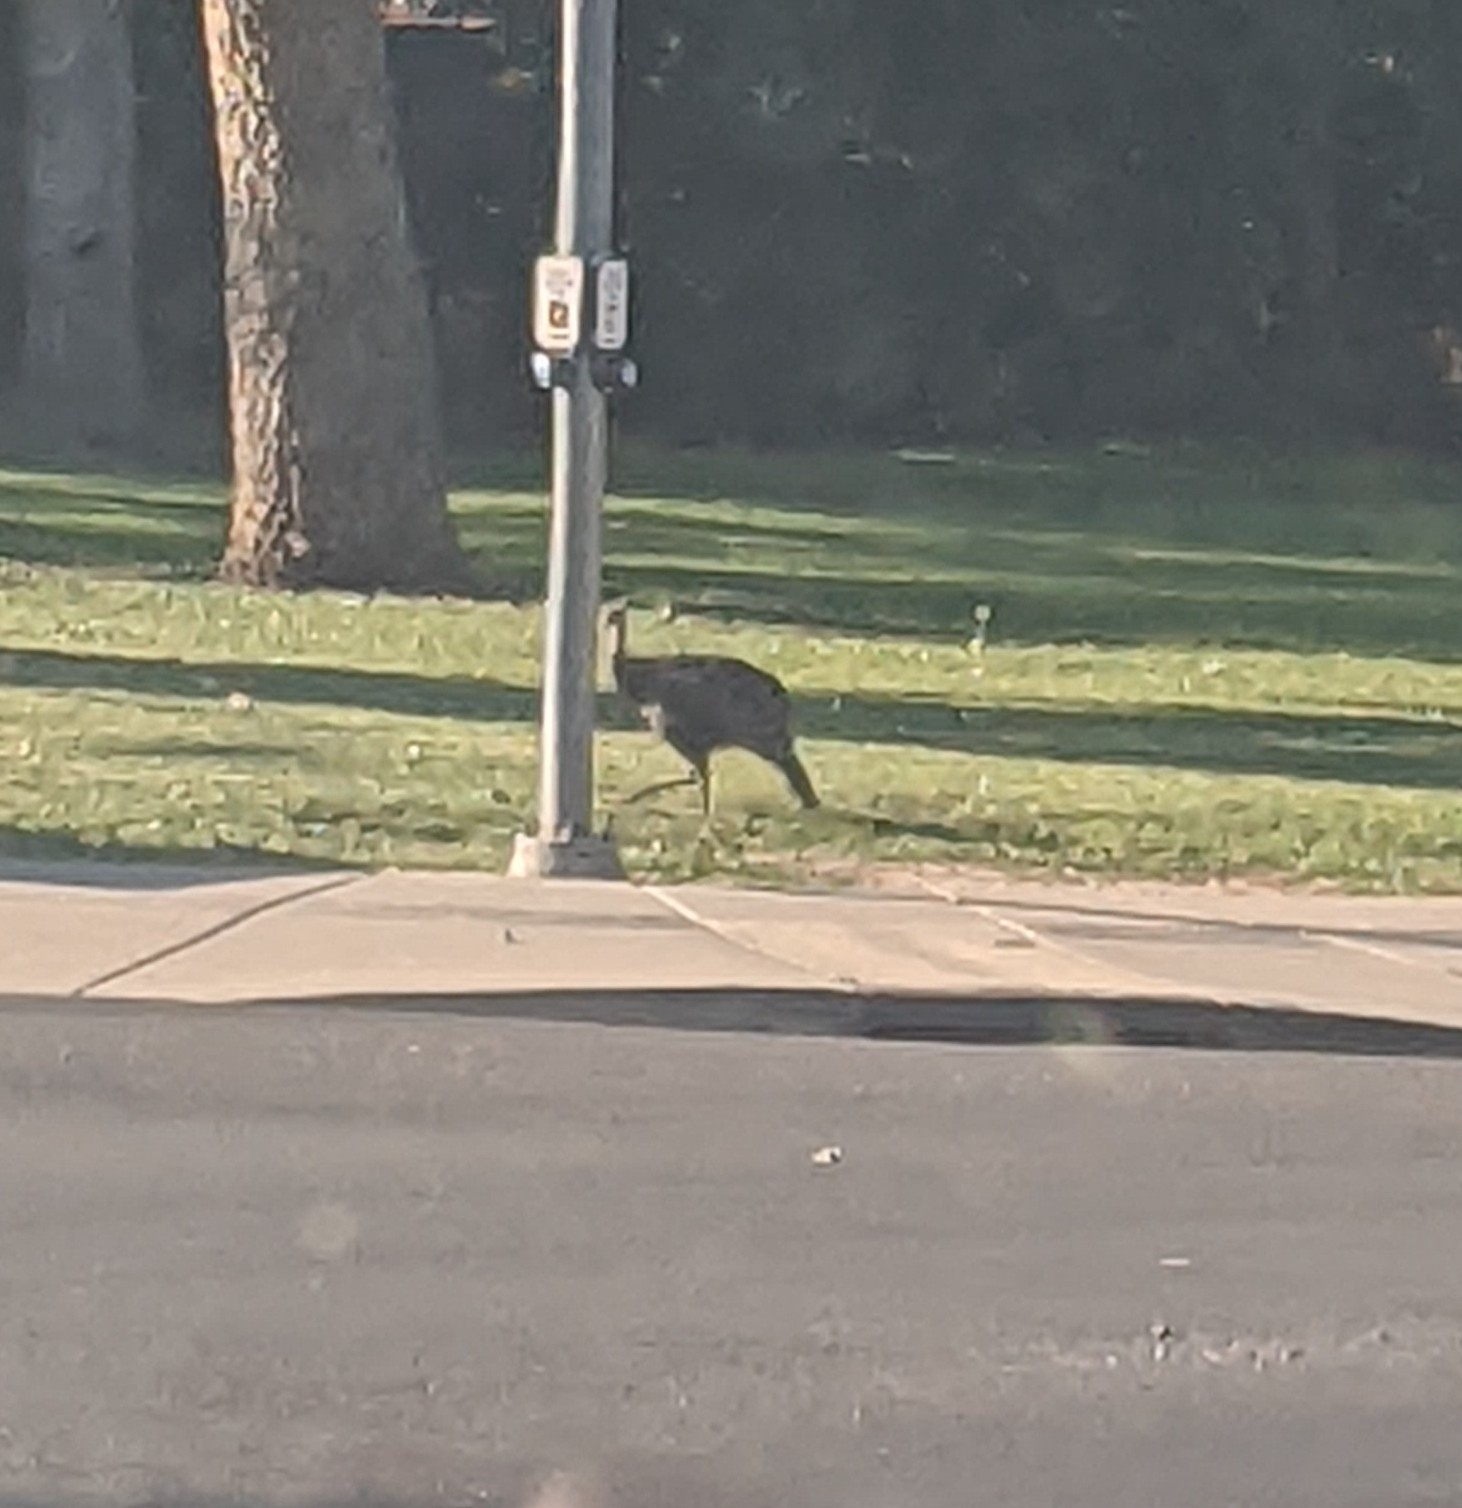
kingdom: Animalia
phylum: Chordata
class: Aves
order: Galliformes
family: Phasianidae
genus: Meleagris
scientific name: Meleagris gallopavo
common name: Wild turkey
